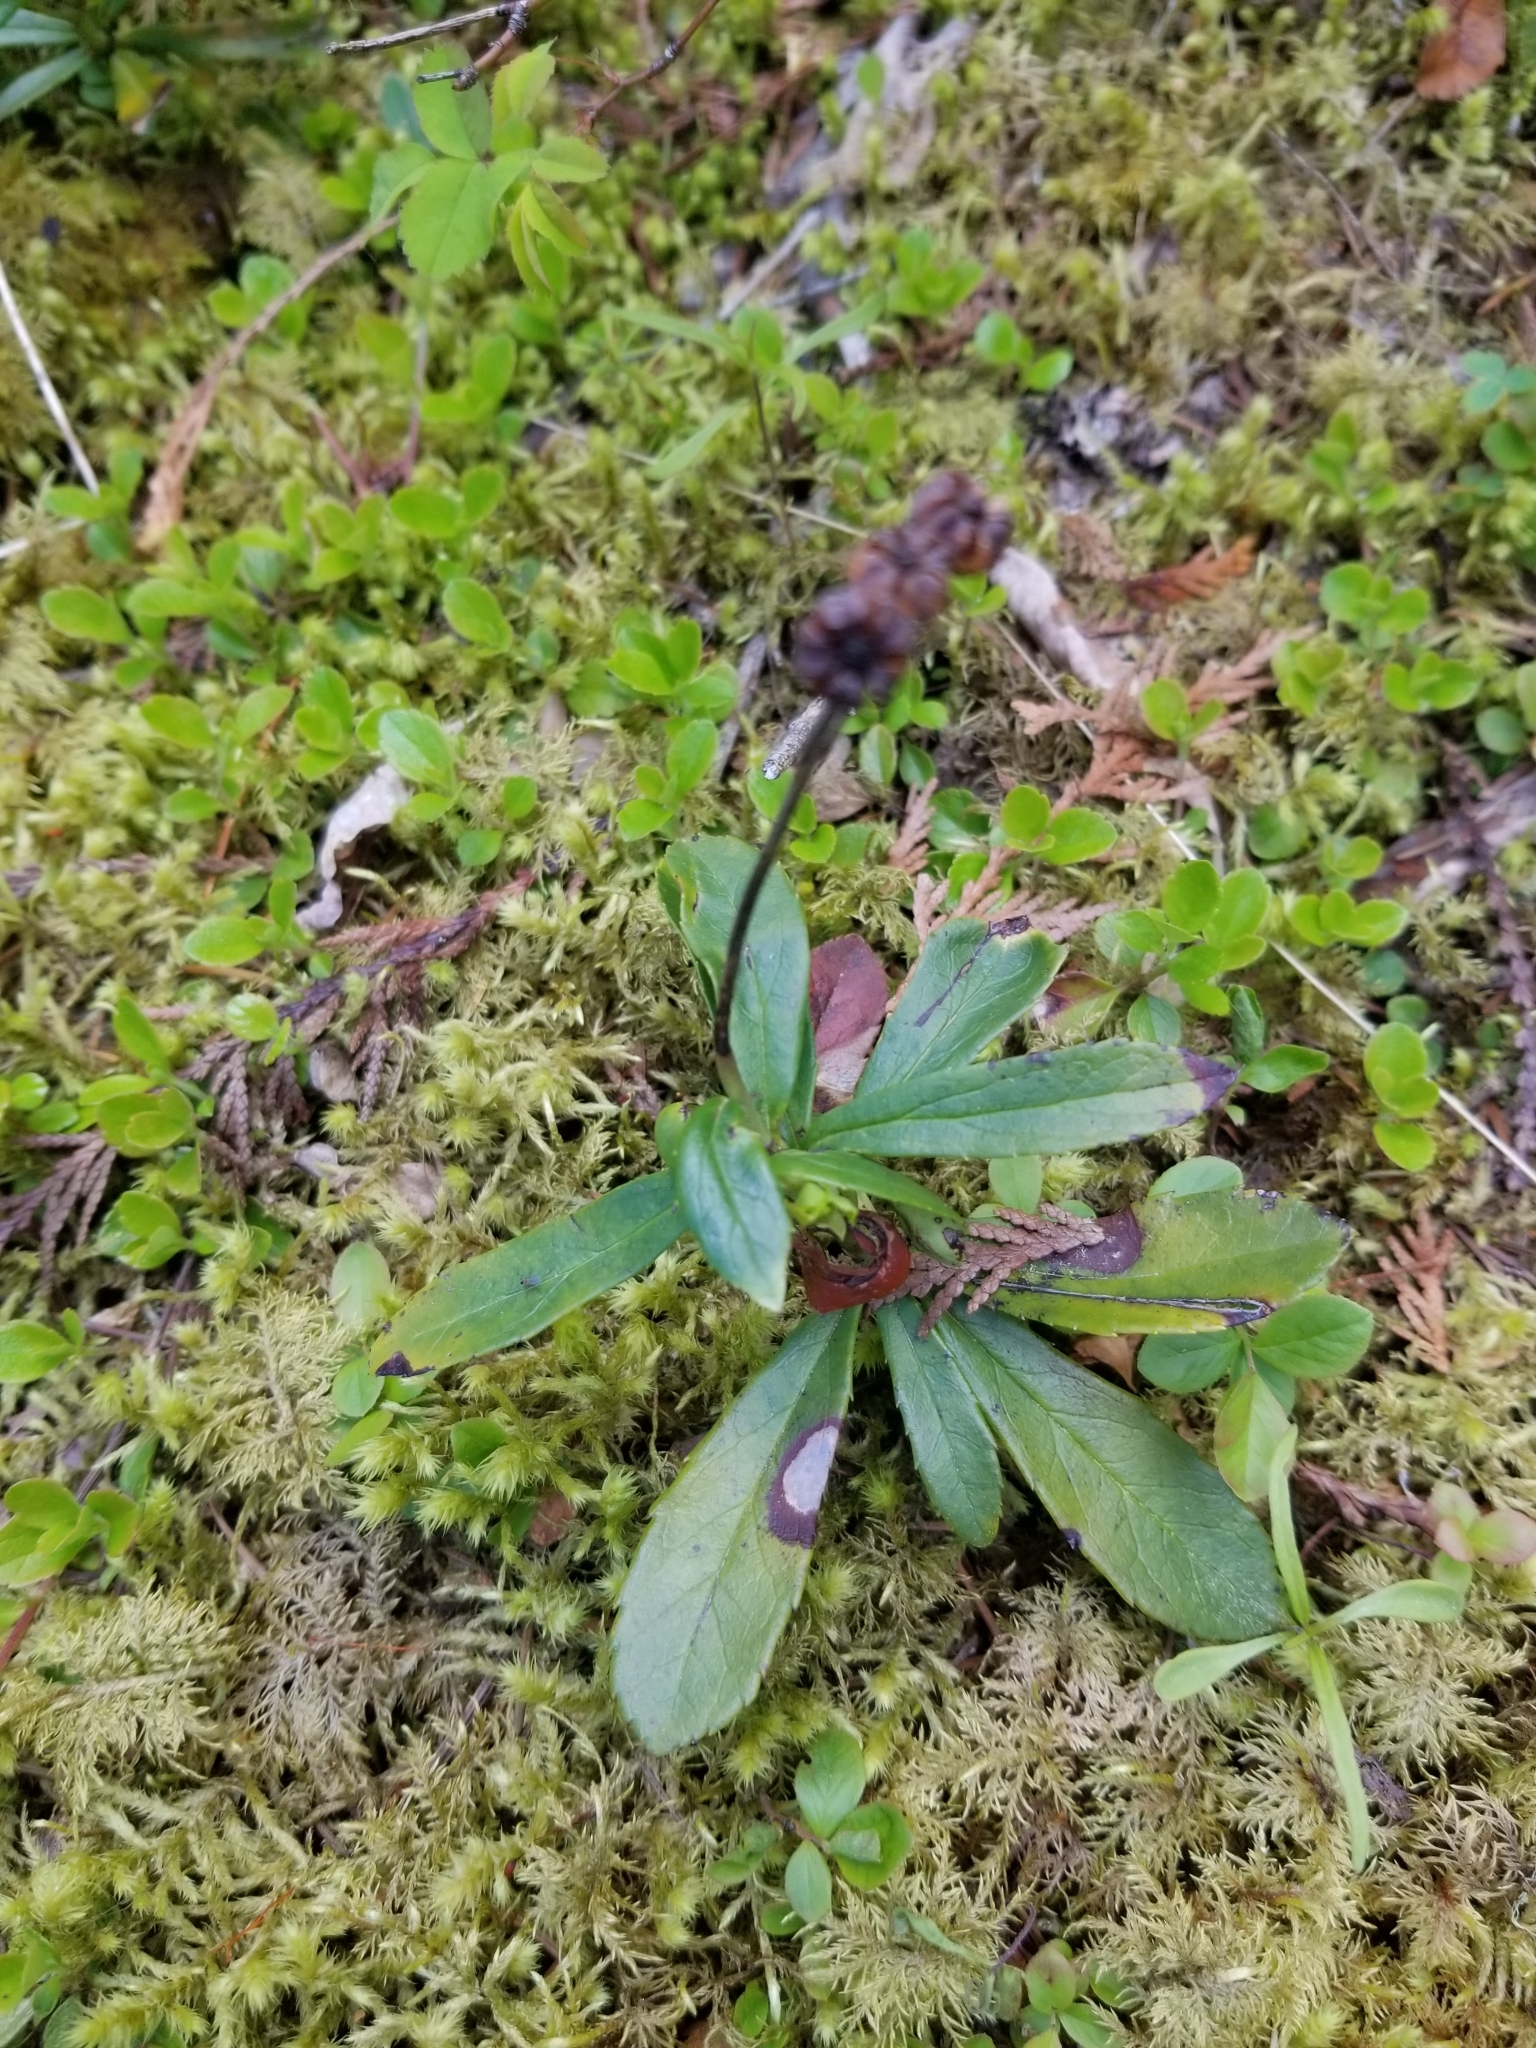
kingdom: Plantae
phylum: Tracheophyta
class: Magnoliopsida
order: Ericales
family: Ericaceae
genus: Chimaphila
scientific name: Chimaphila umbellata
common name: Pipsissewa
